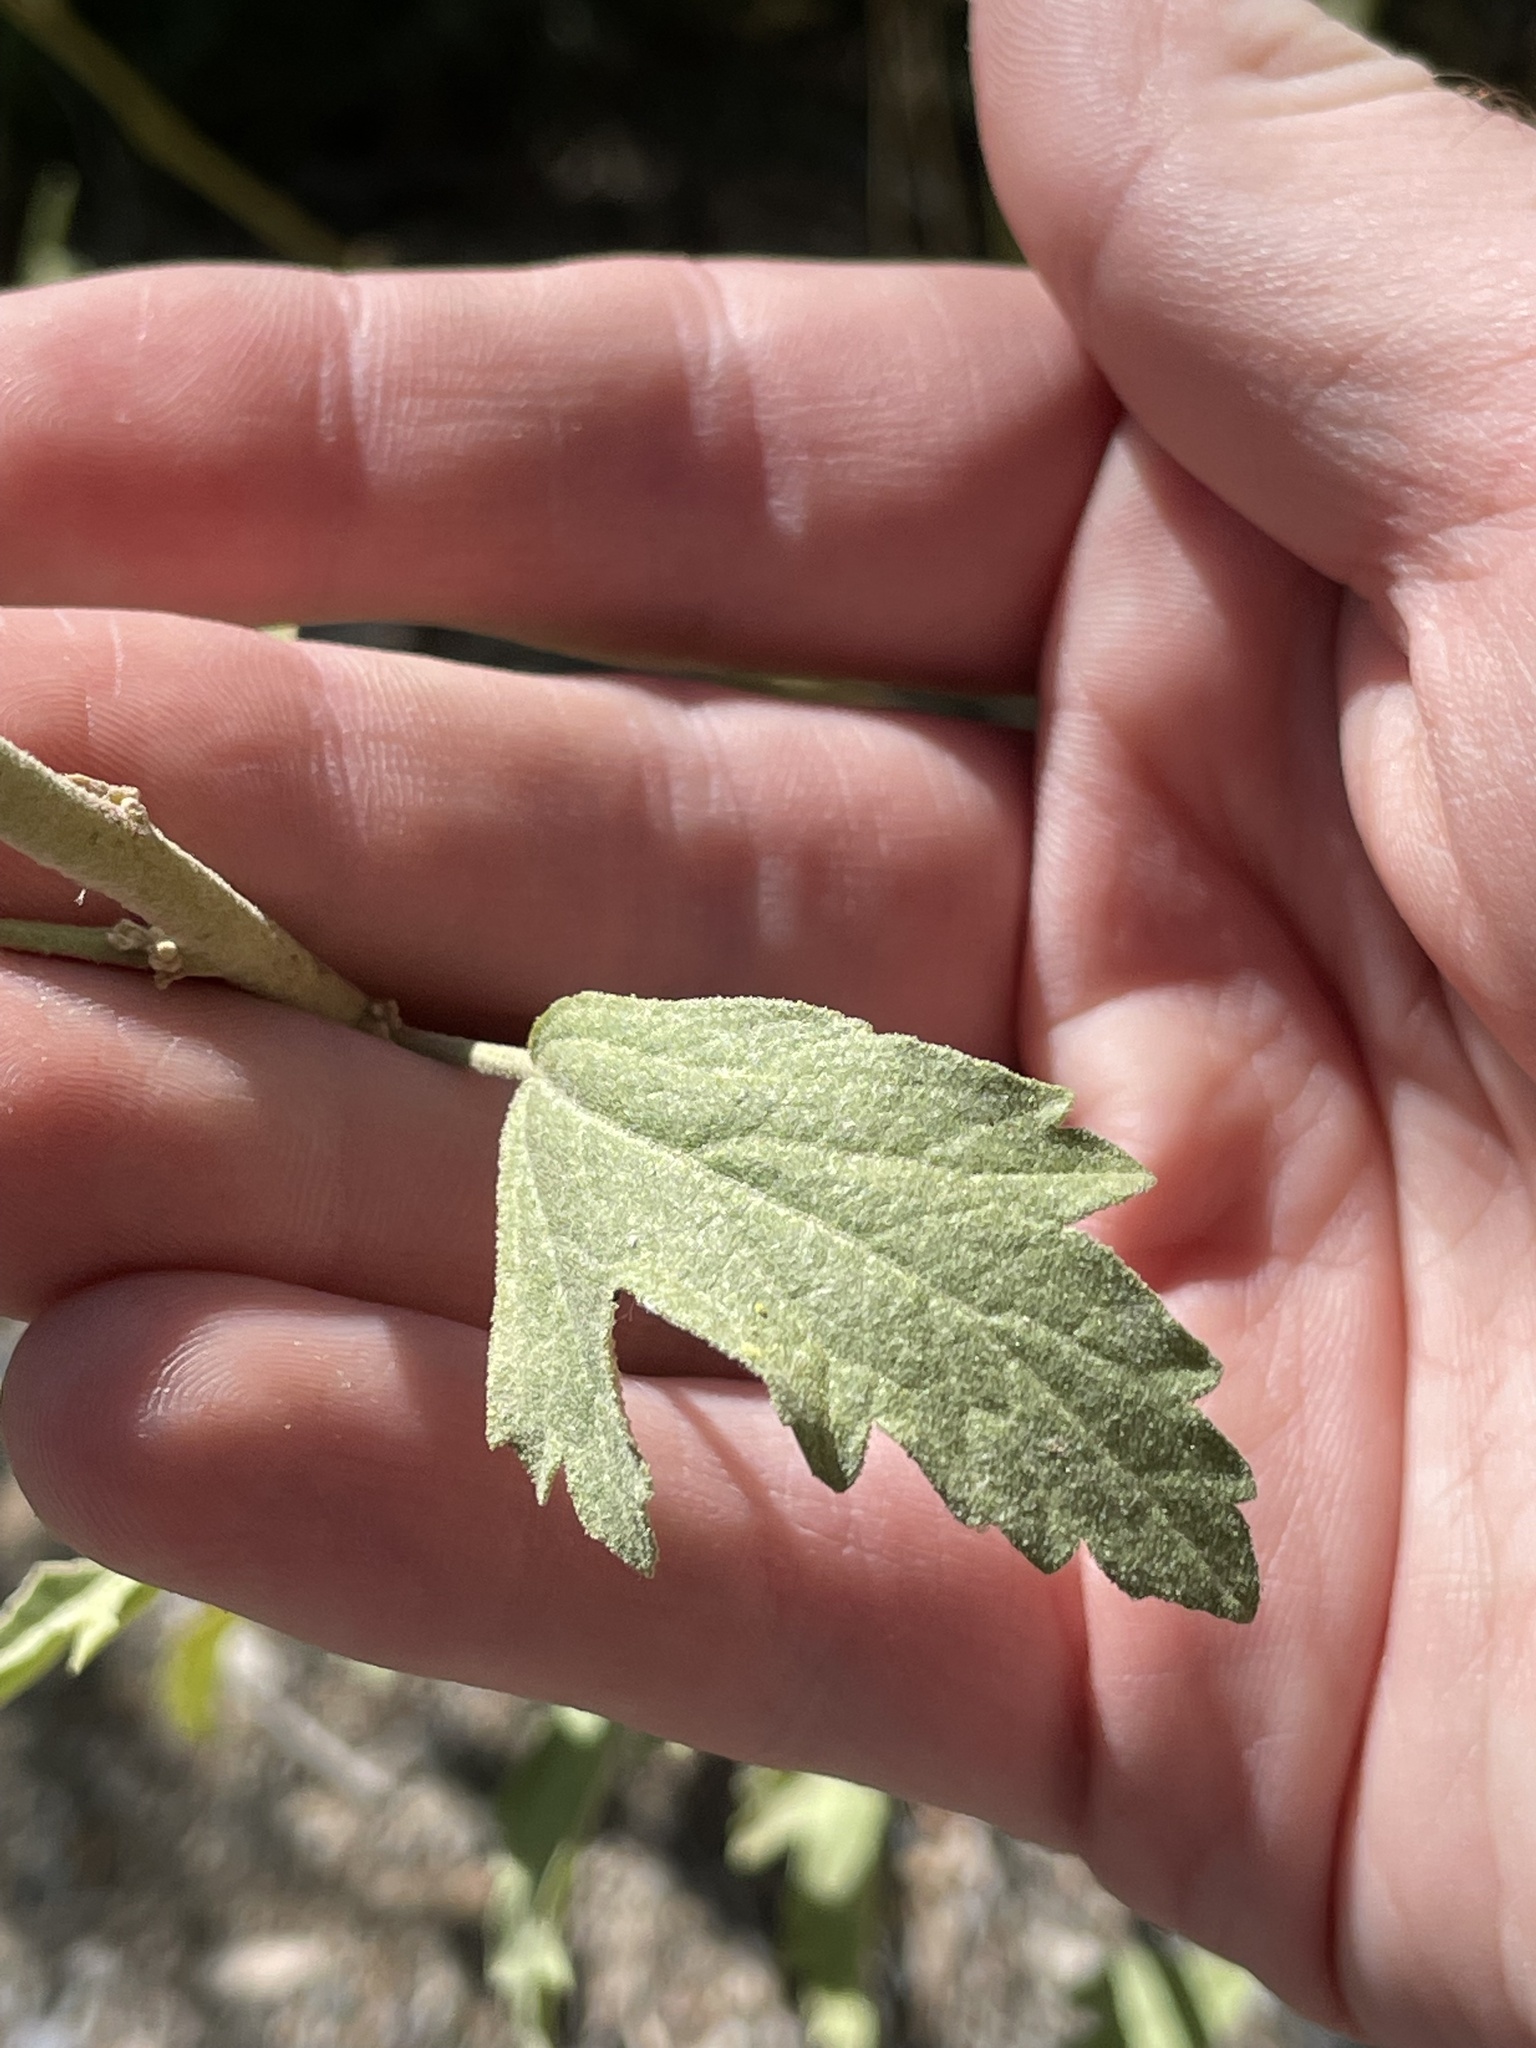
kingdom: Plantae
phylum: Tracheophyta
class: Magnoliopsida
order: Malvales
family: Malvaceae
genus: Sphaeralcea
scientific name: Sphaeralcea fendleri
